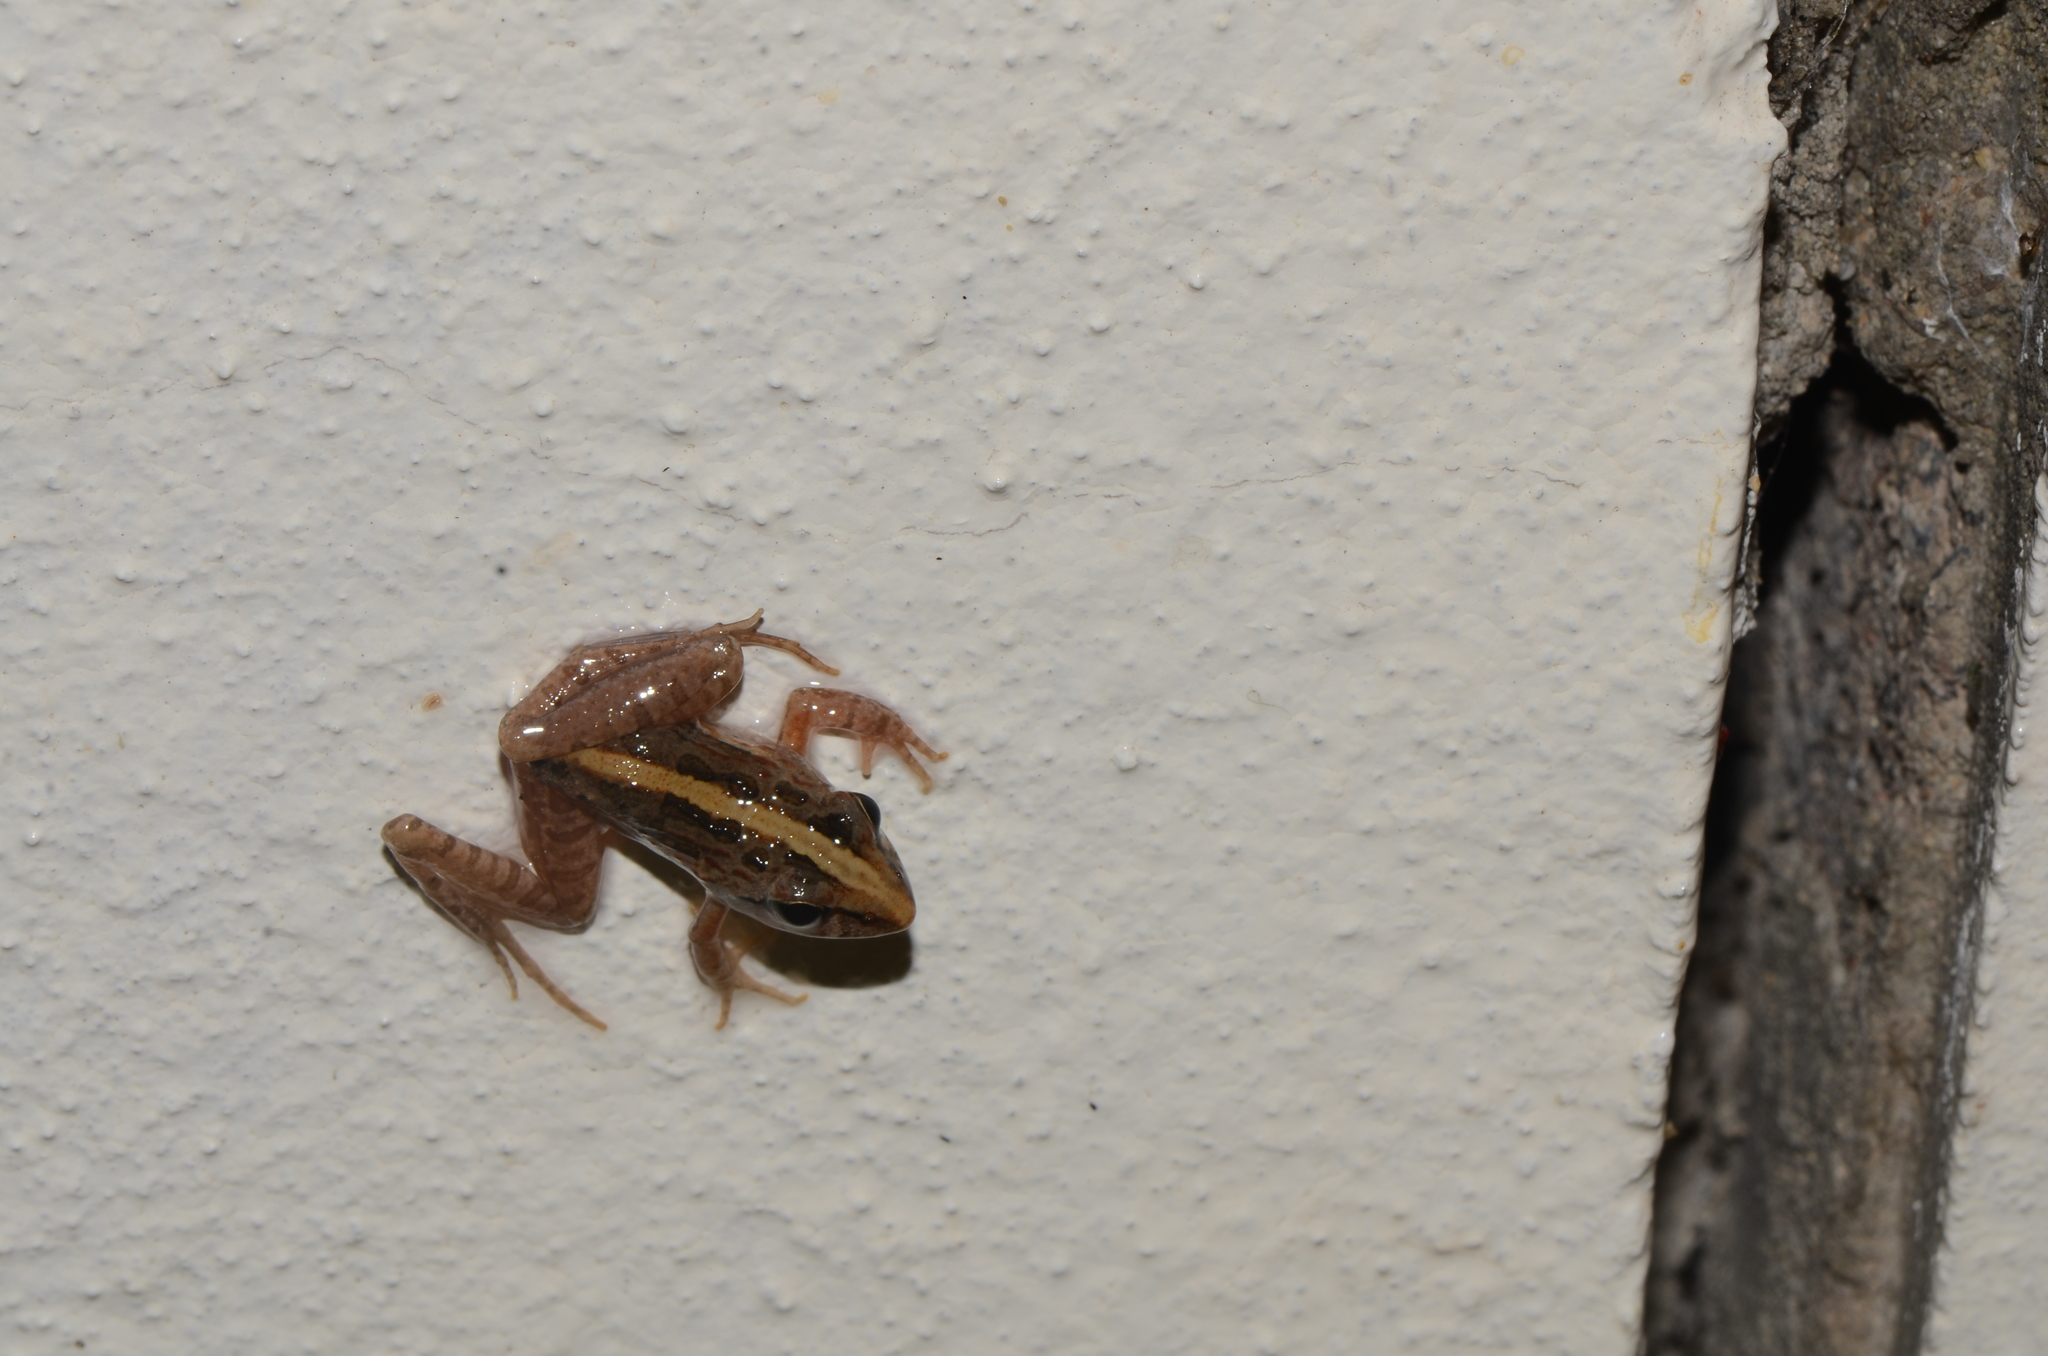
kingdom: Animalia
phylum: Chordata
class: Amphibia
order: Anura
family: Pyxicephalidae
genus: Strongylopus
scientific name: Strongylopus grayii
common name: Gray's stream frog
